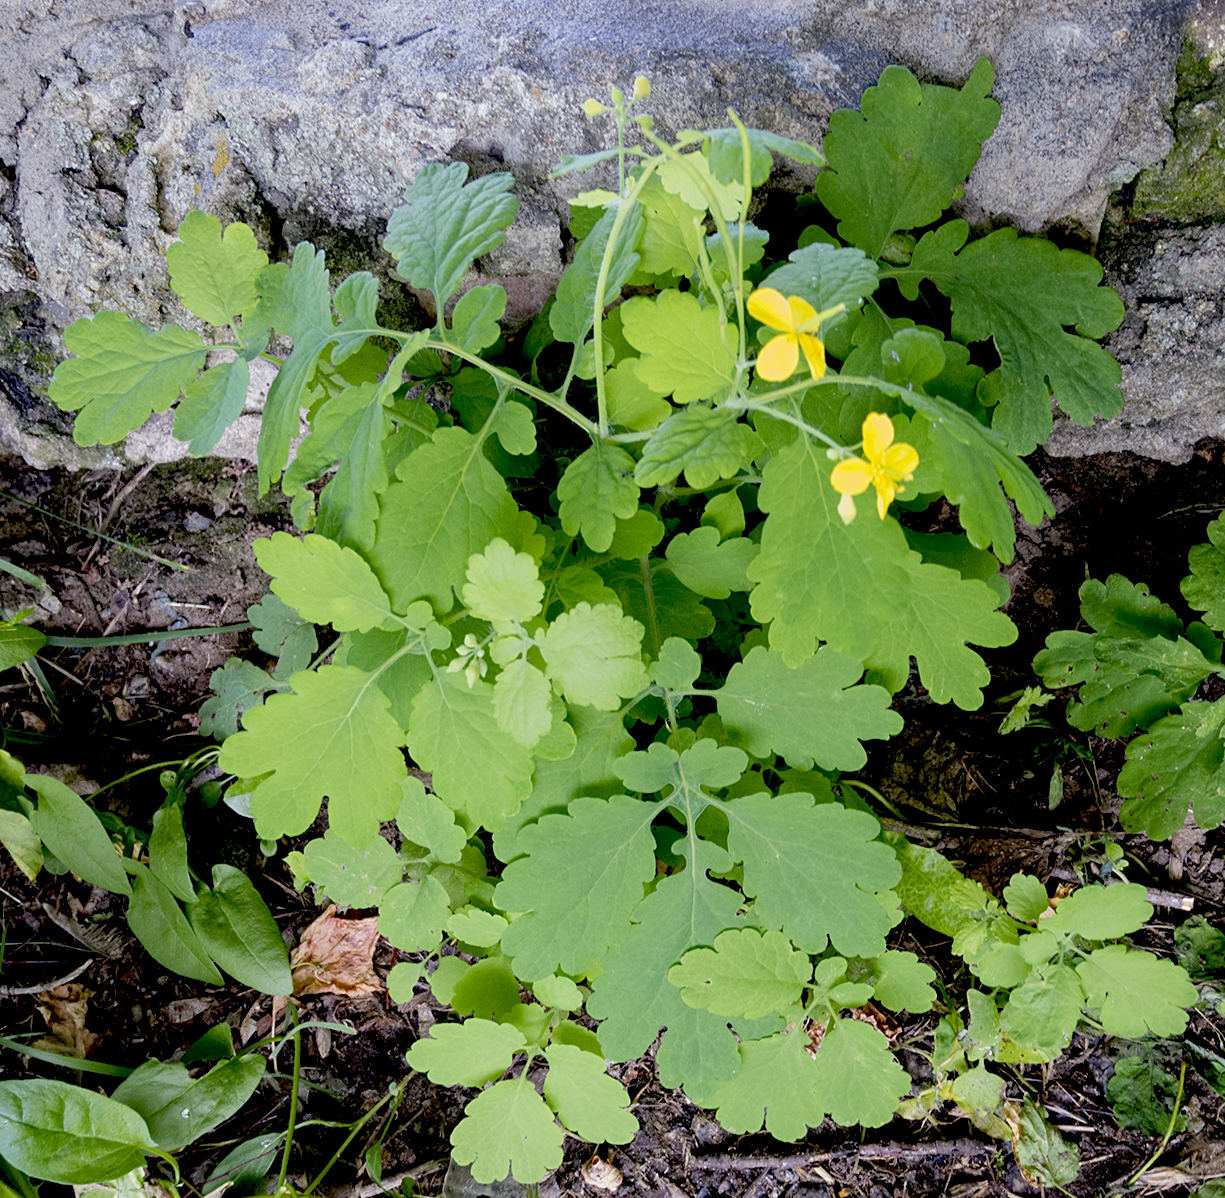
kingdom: Plantae
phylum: Tracheophyta
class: Magnoliopsida
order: Ranunculales
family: Papaveraceae
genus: Chelidonium
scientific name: Chelidonium majus
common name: Greater celandine
